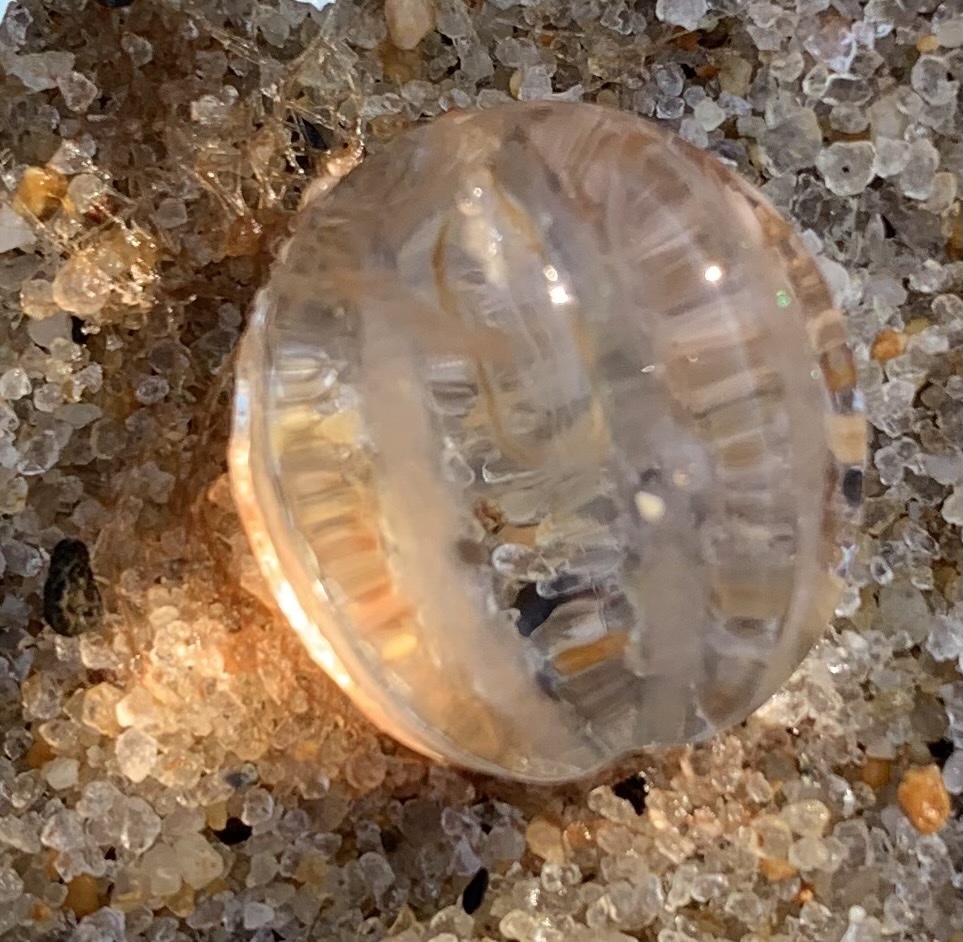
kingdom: Animalia
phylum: Ctenophora
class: Tentaculata
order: Cydippida
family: Pleurobrachiidae
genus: Pleurobrachia
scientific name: Pleurobrachia pileus
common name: Sea gooseberry
